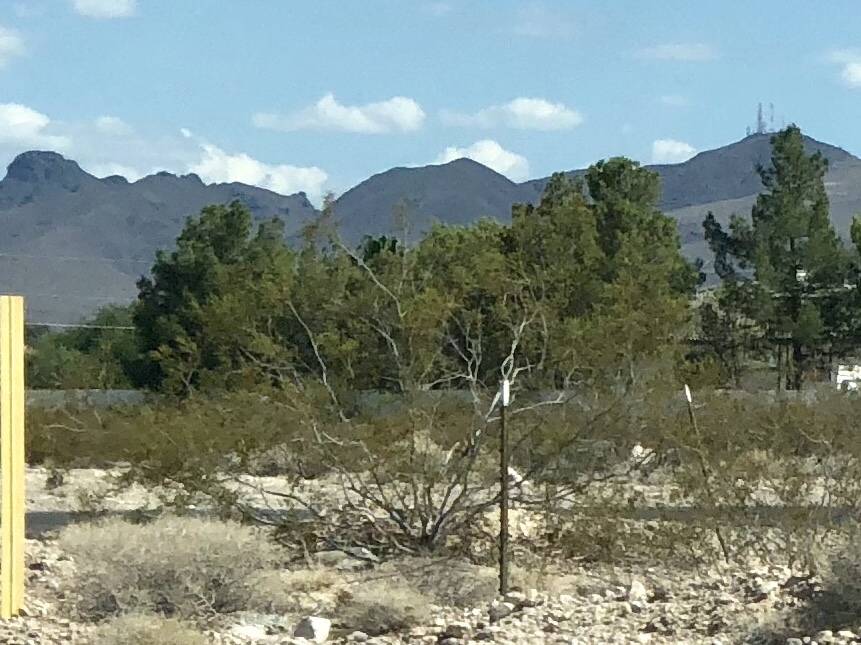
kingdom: Plantae
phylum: Tracheophyta
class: Magnoliopsida
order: Zygophyllales
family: Zygophyllaceae
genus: Larrea
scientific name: Larrea tridentata
